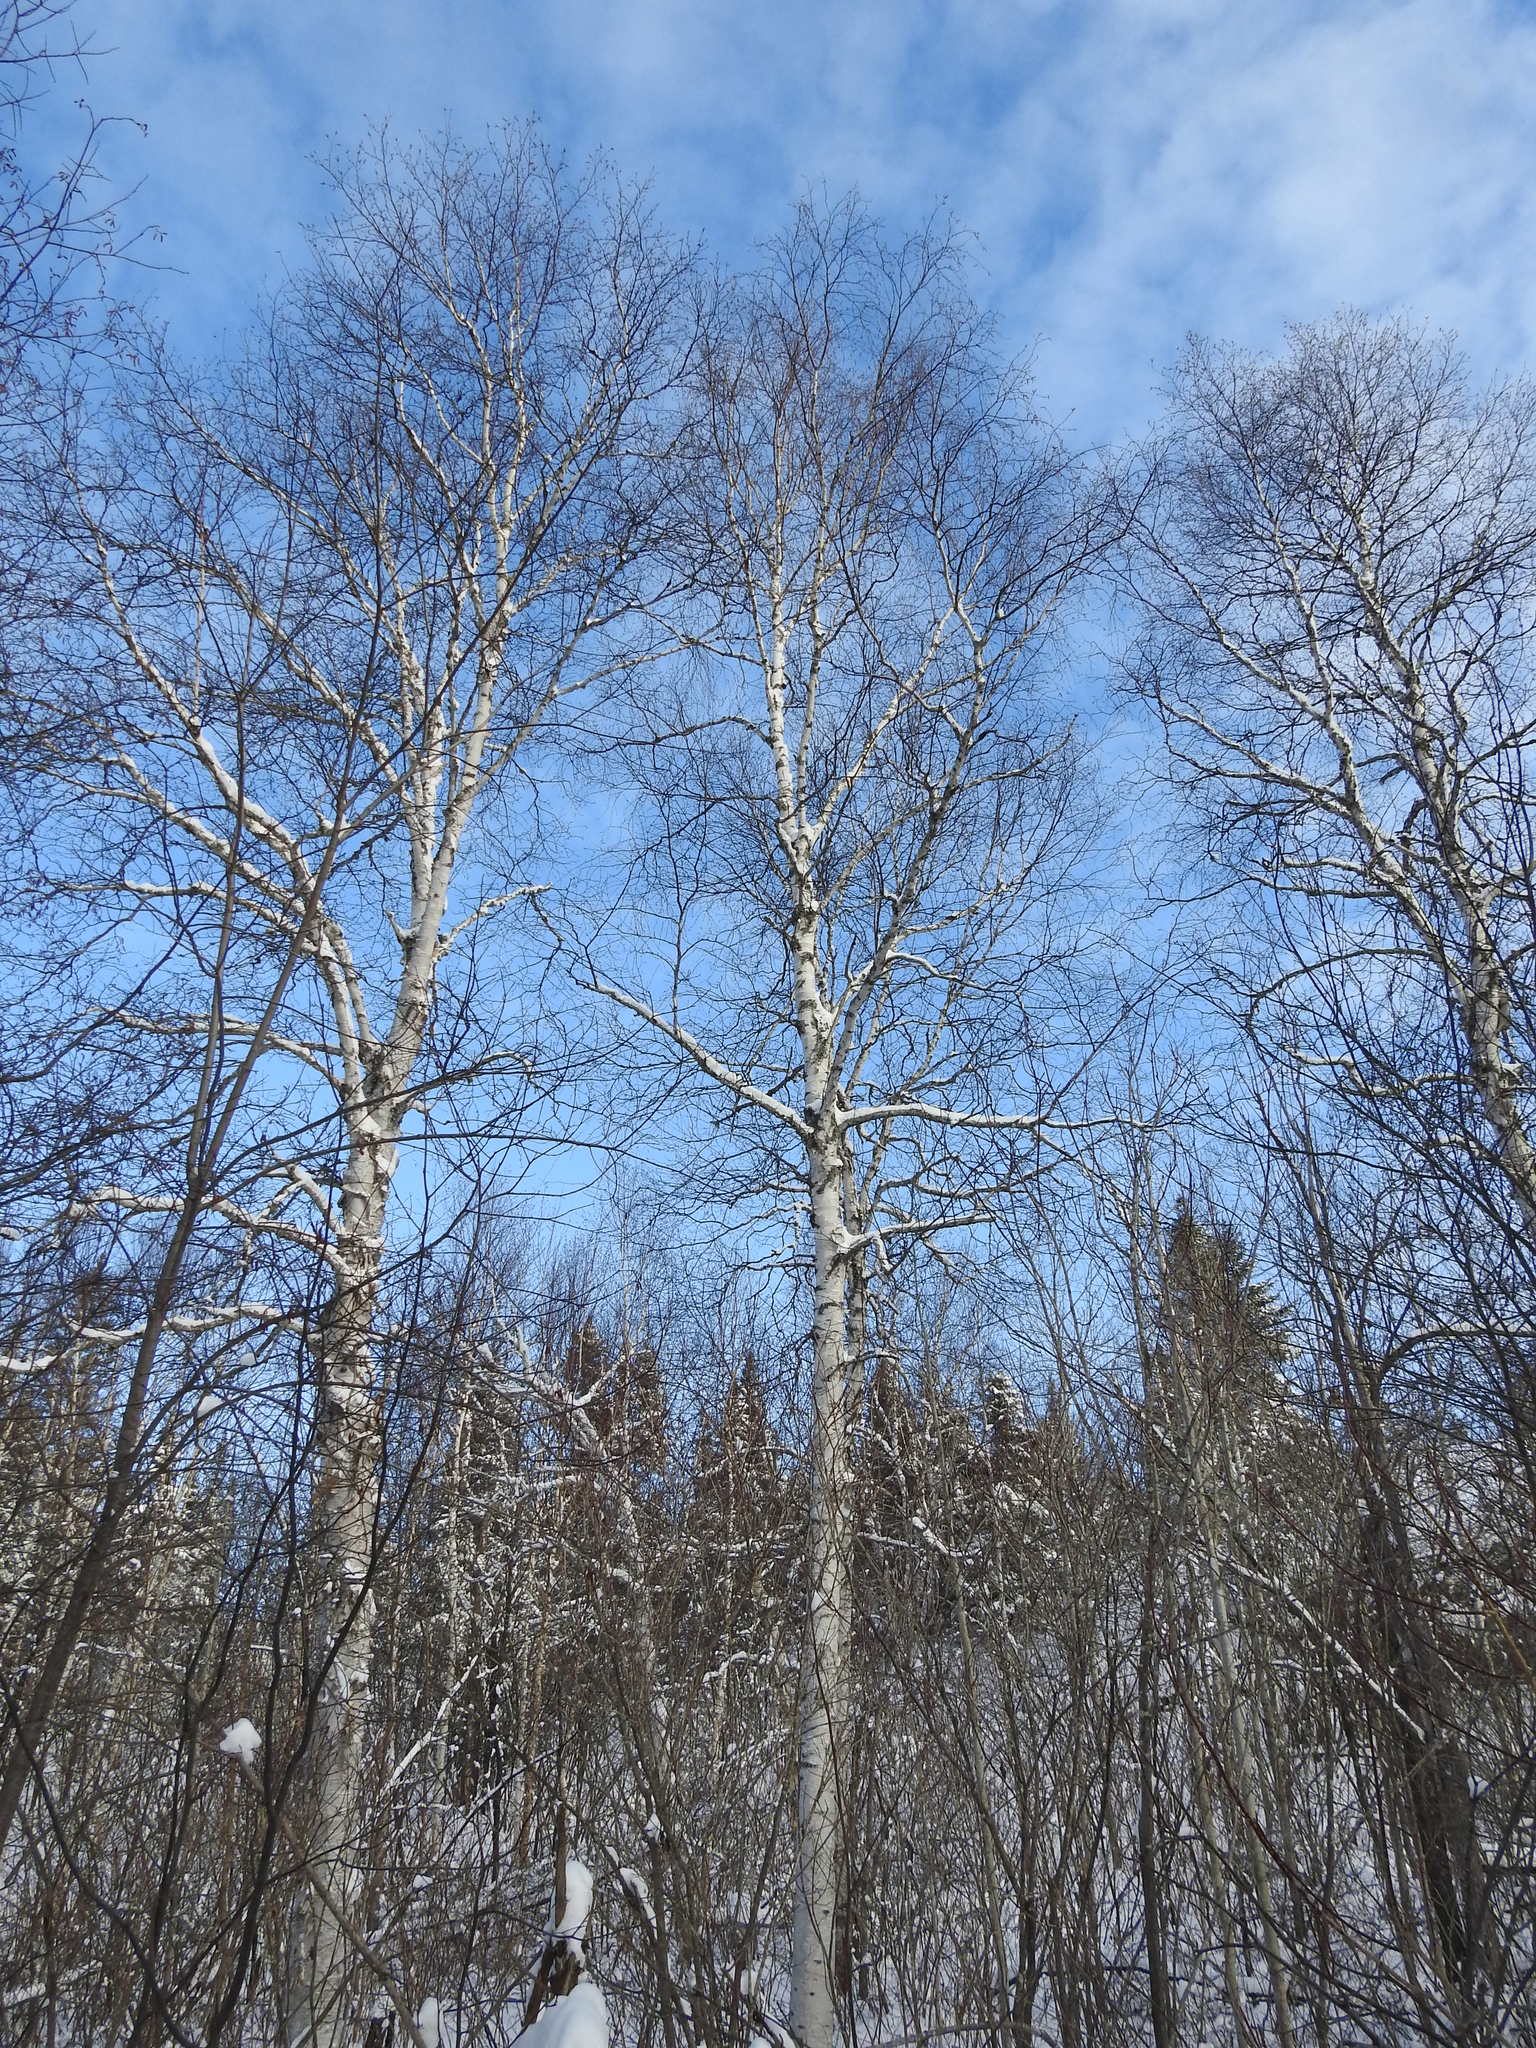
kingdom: Plantae
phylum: Tracheophyta
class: Magnoliopsida
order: Fagales
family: Betulaceae
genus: Betula
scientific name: Betula papyrifera
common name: Paper birch
